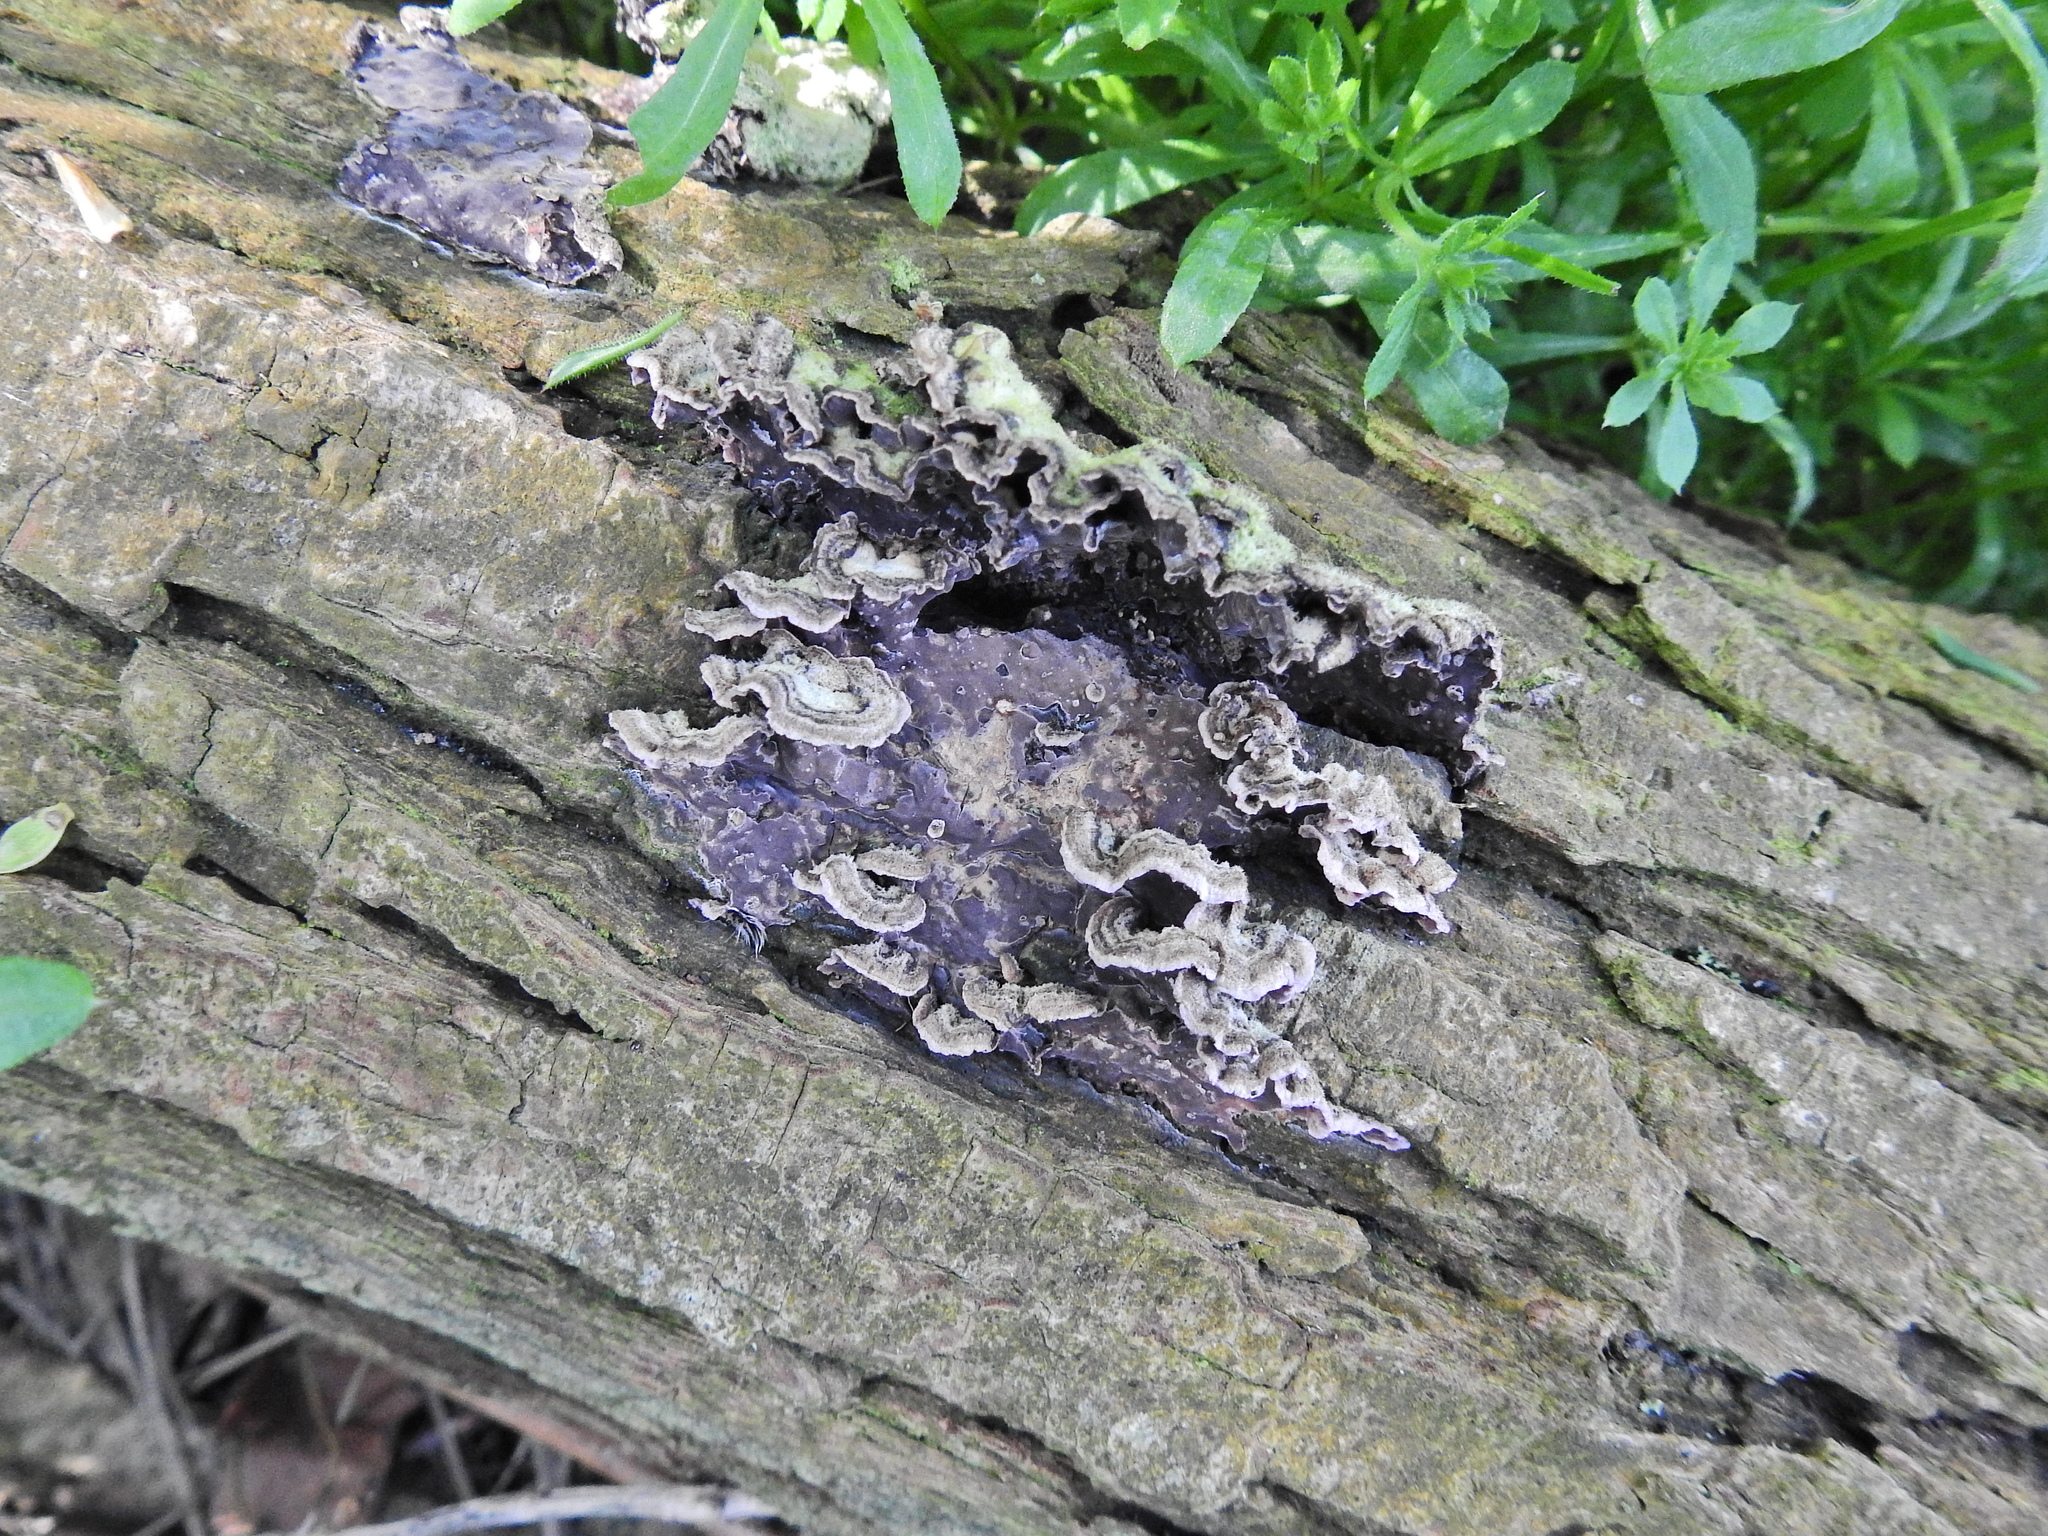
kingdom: Fungi
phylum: Basidiomycota
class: Agaricomycetes
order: Agaricales
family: Cyphellaceae
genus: Chondrostereum
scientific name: Chondrostereum purpureum
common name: Silver leaf disease
